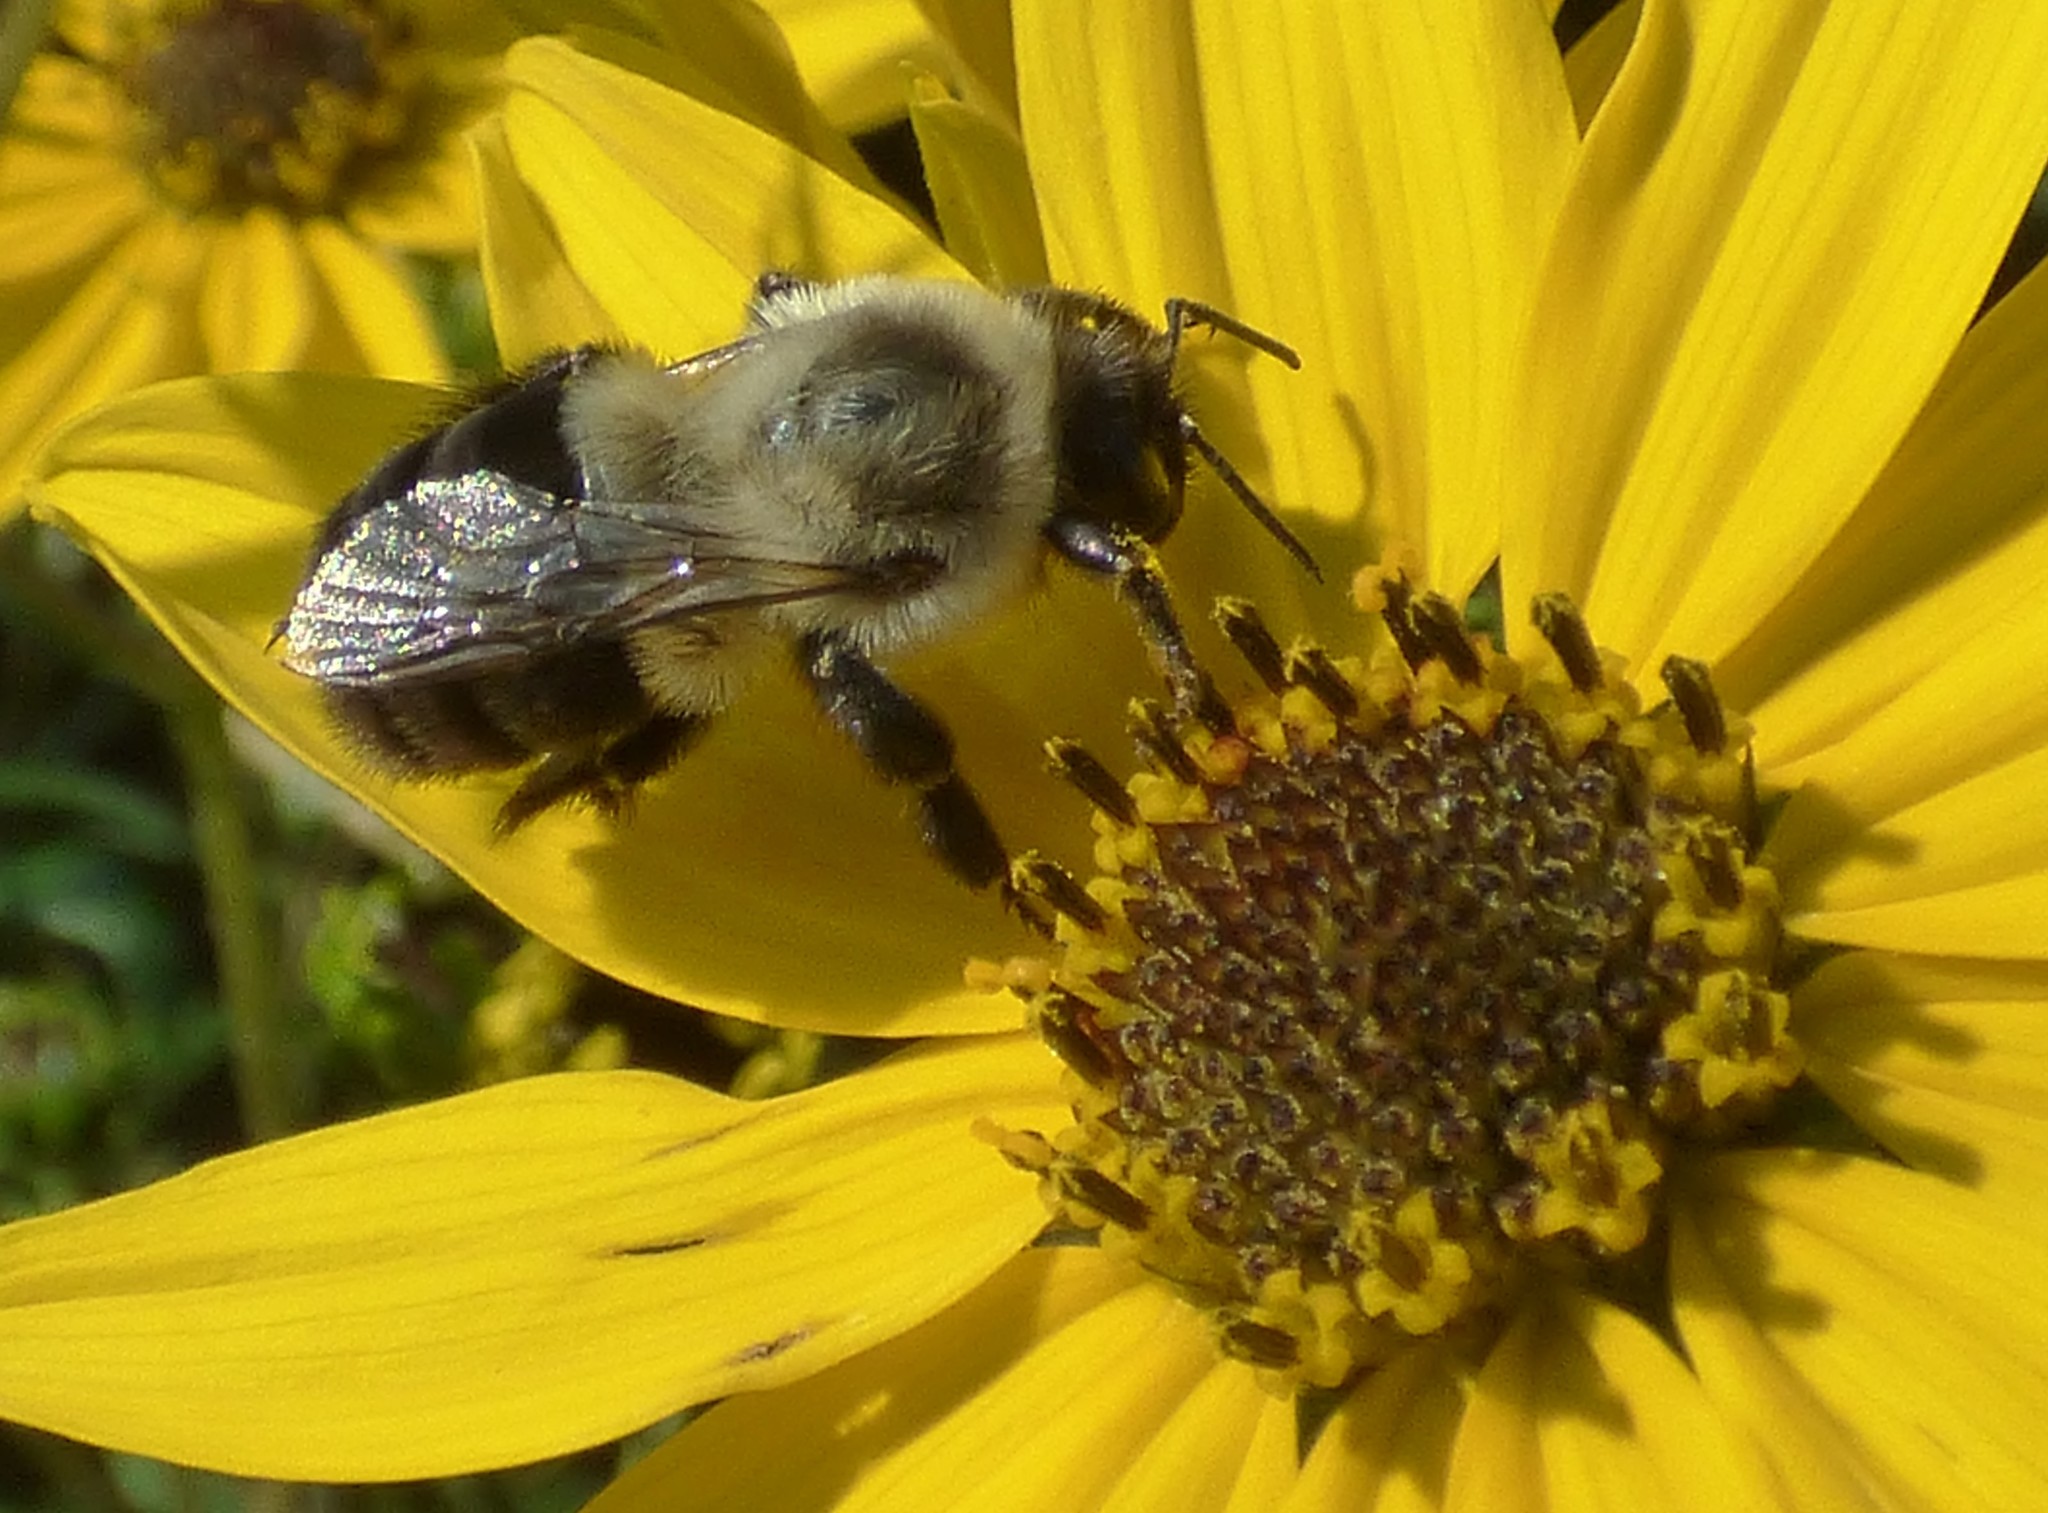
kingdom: Animalia
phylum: Arthropoda
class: Insecta
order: Hymenoptera
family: Apidae
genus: Bombus
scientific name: Bombus impatiens
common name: Common eastern bumble bee
